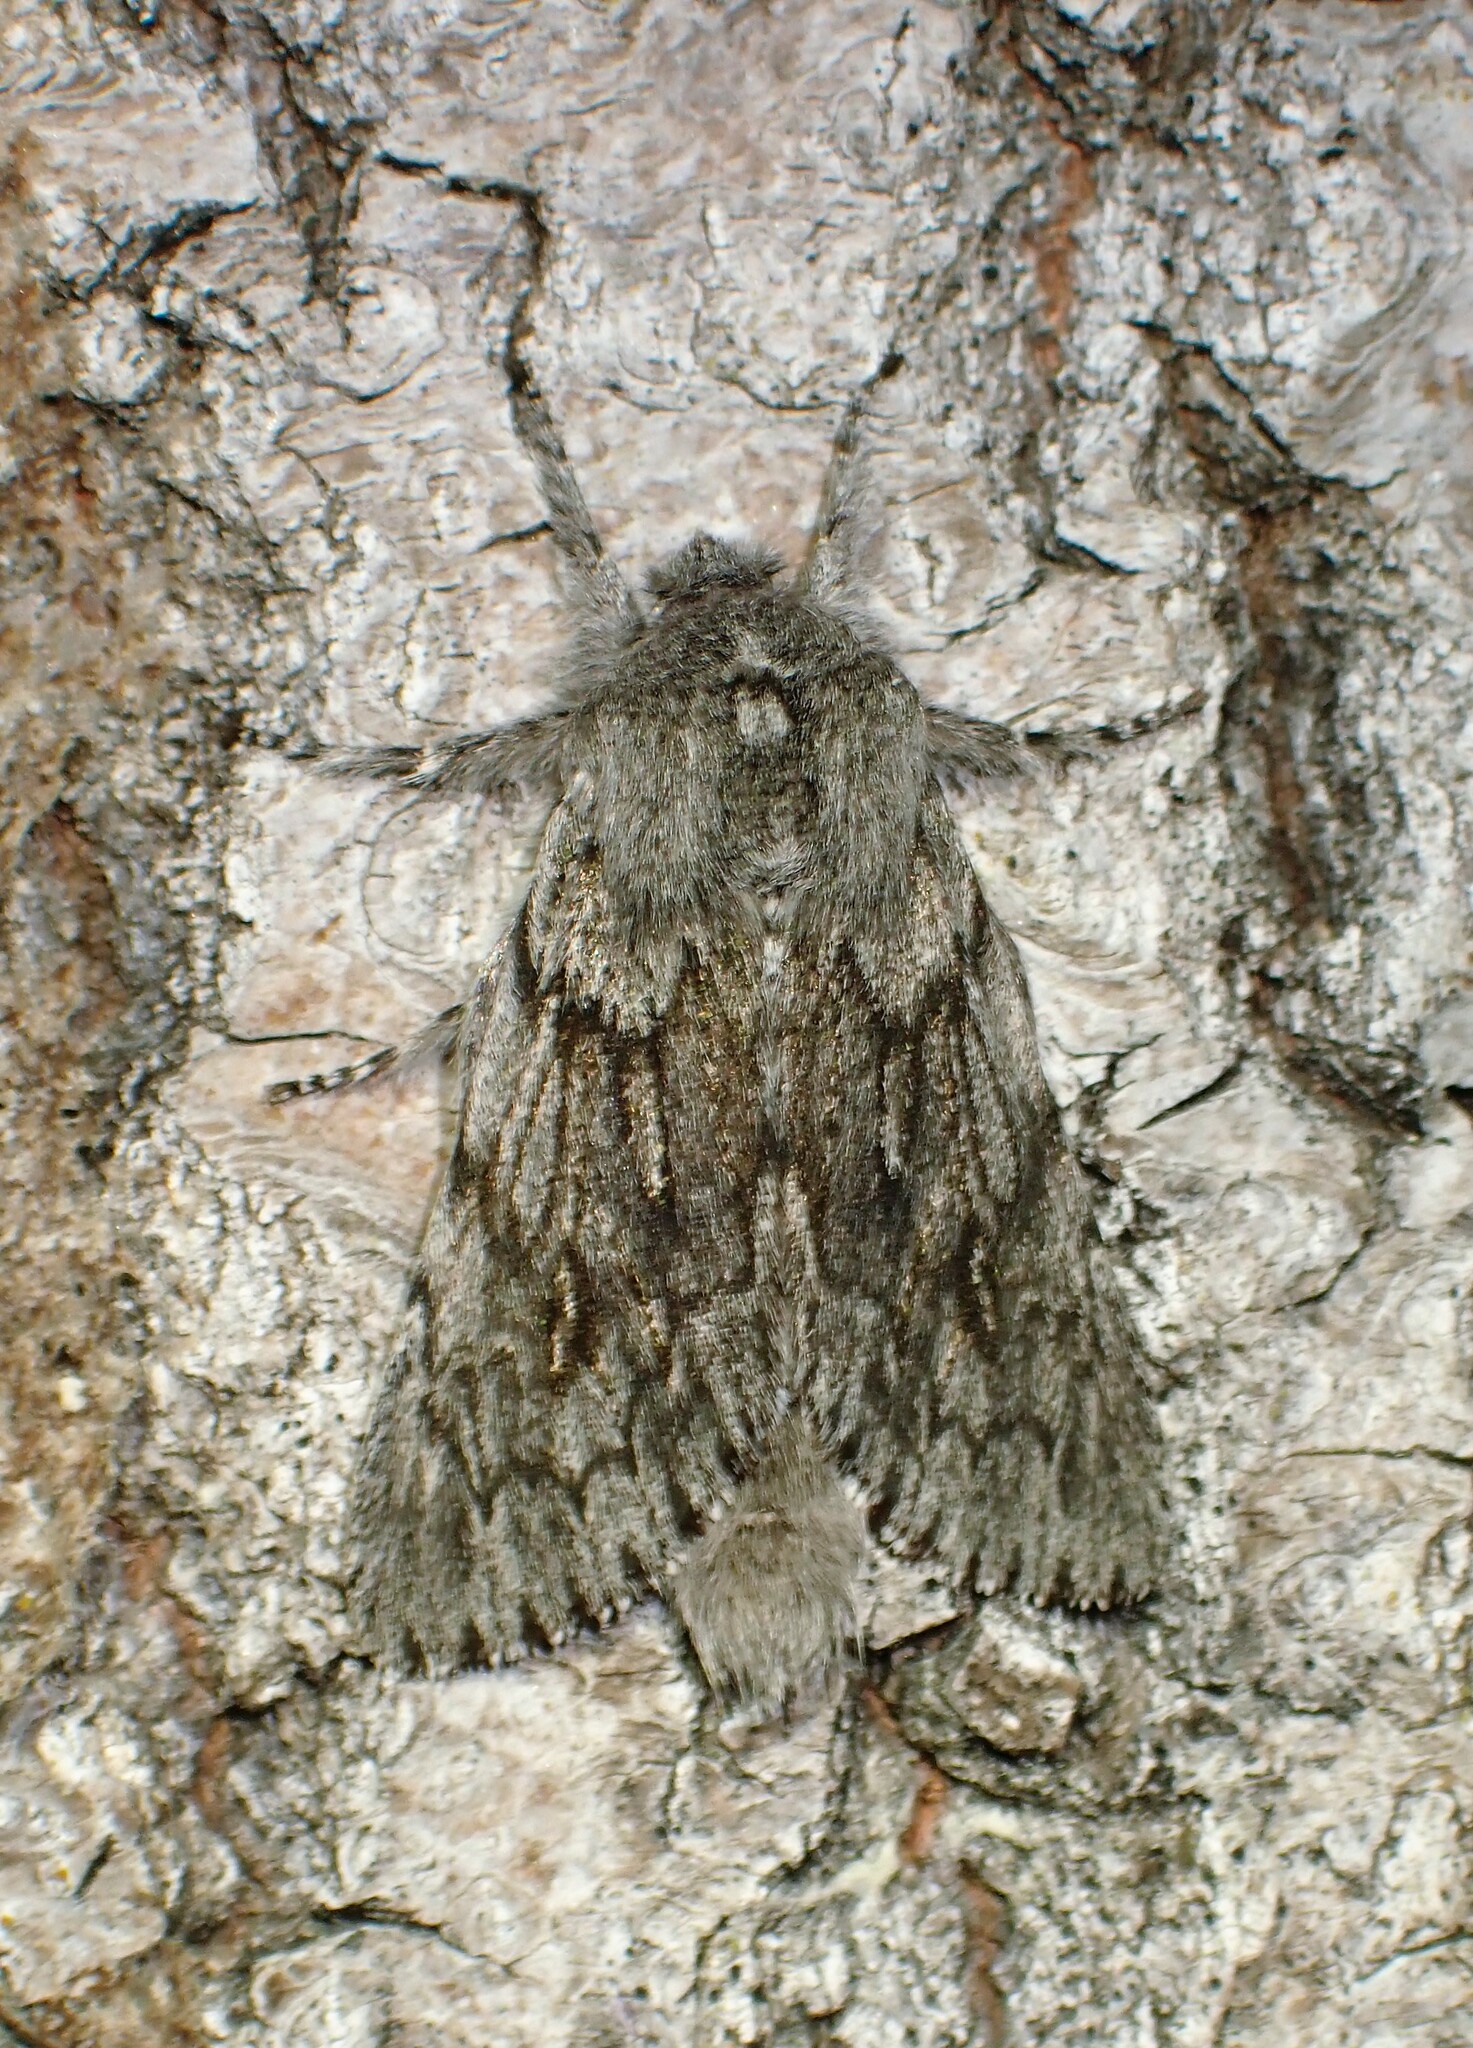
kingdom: Animalia
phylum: Arthropoda
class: Insecta
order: Lepidoptera
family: Noctuidae
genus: Brachionycha
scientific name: Brachionycha borealis
